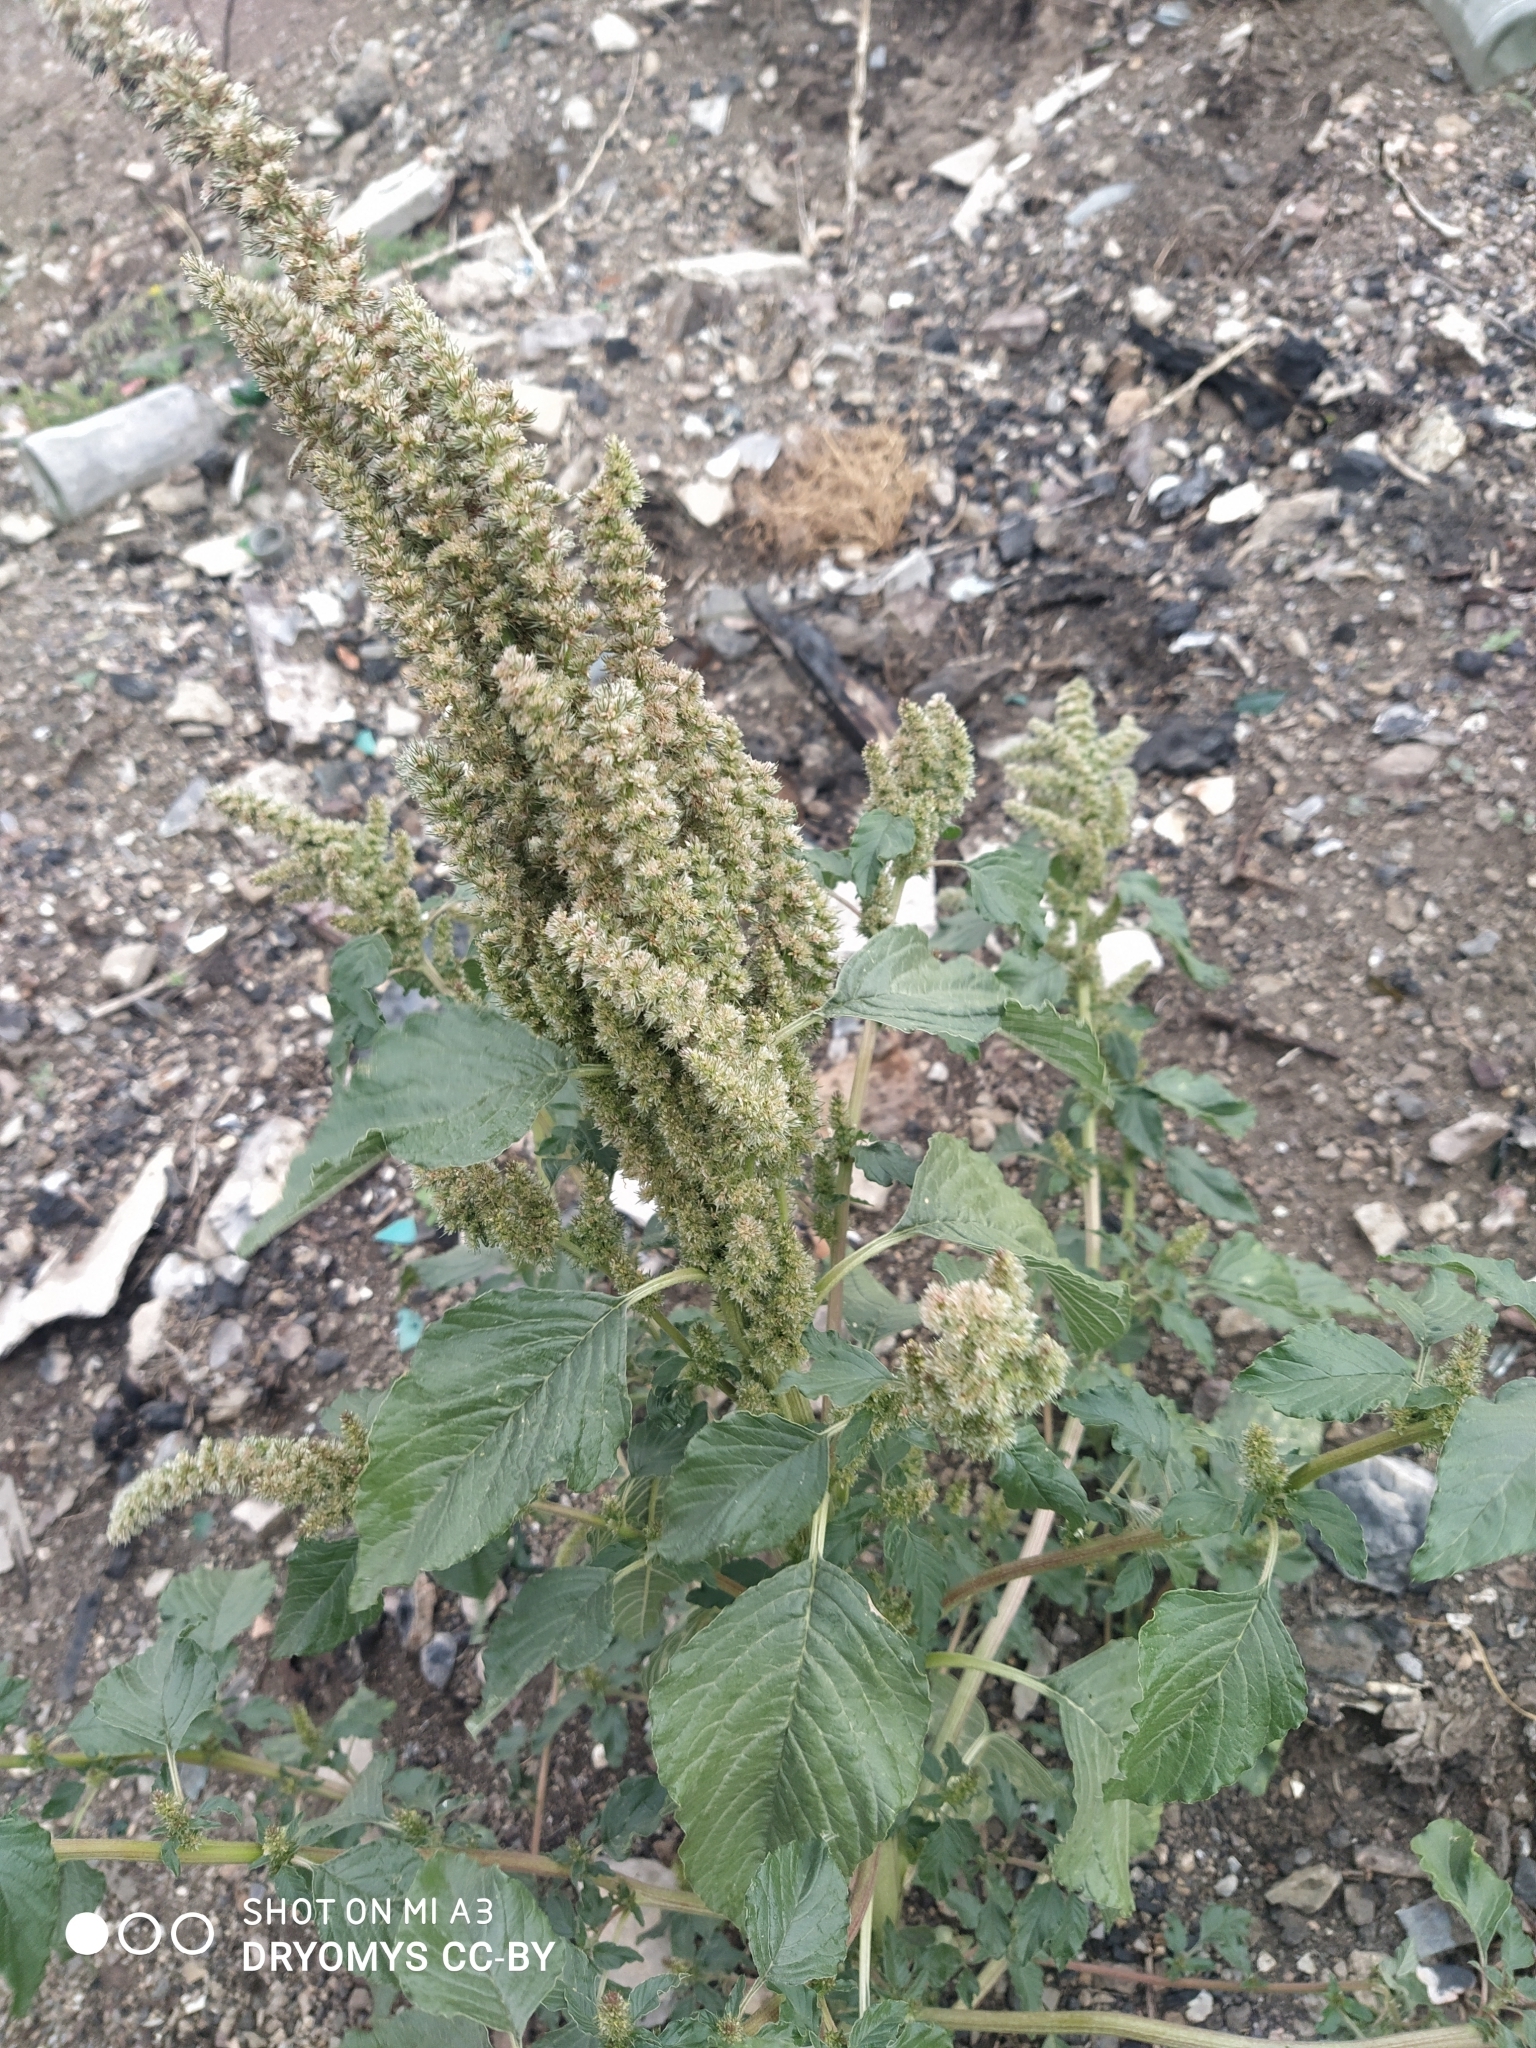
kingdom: Plantae
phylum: Tracheophyta
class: Magnoliopsida
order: Caryophyllales
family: Amaranthaceae
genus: Amaranthus
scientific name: Amaranthus retroflexus
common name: Redroot amaranth
